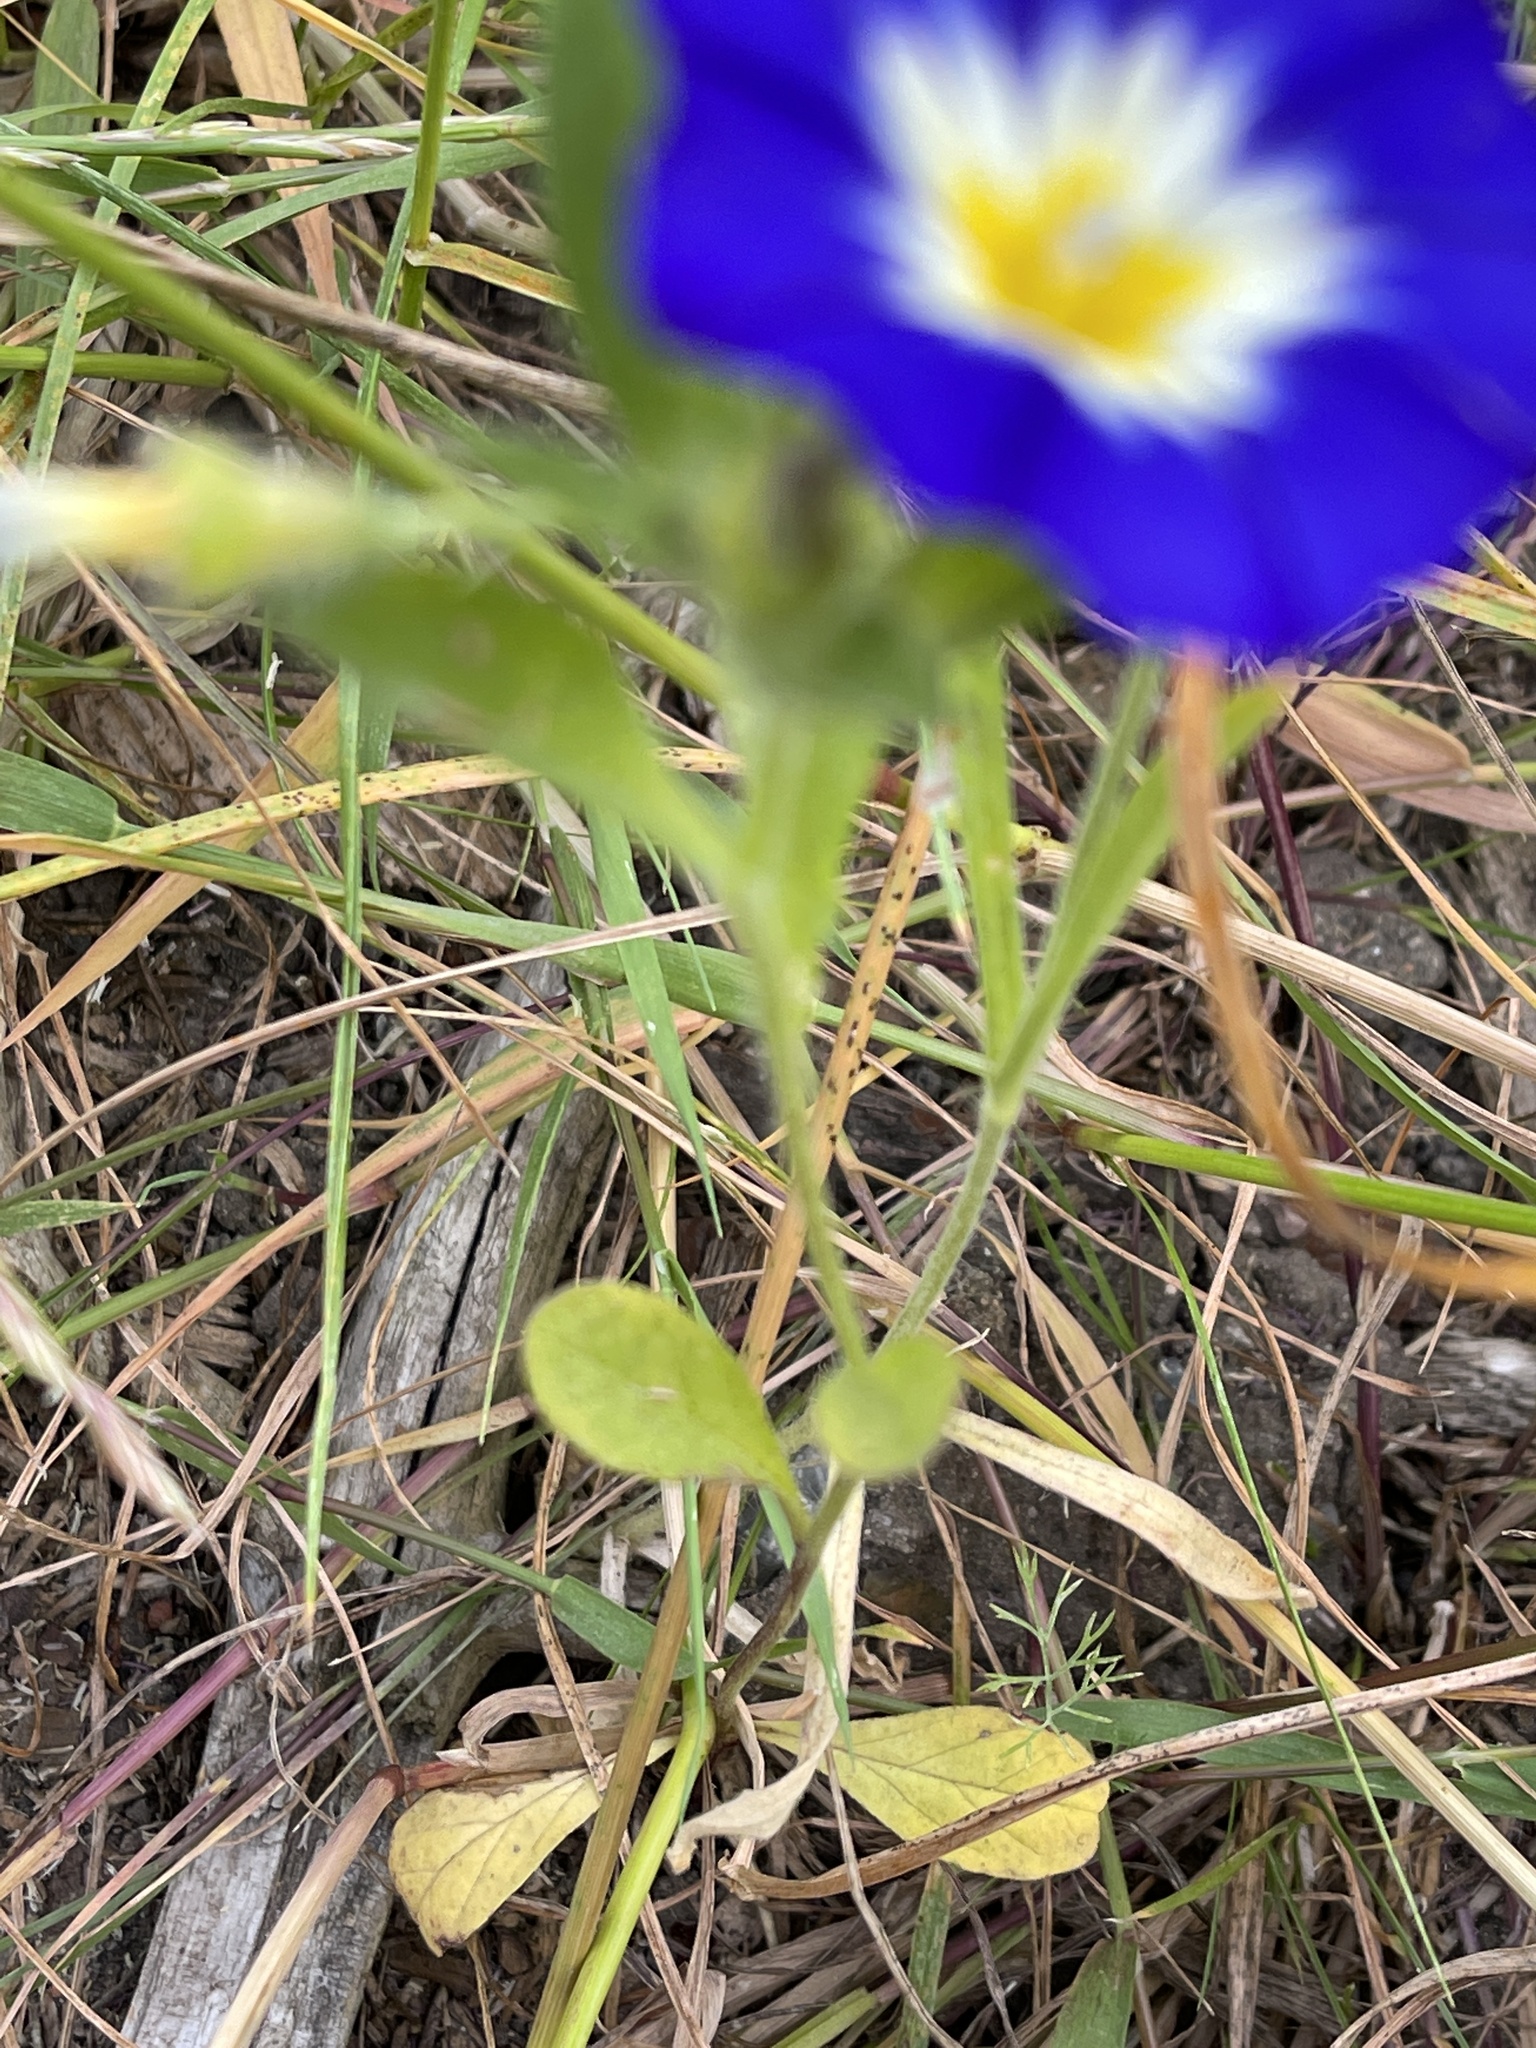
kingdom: Plantae
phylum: Tracheophyta
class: Magnoliopsida
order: Solanales
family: Convolvulaceae
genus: Convolvulus
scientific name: Convolvulus tricolor
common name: Dwarf morning-glory
